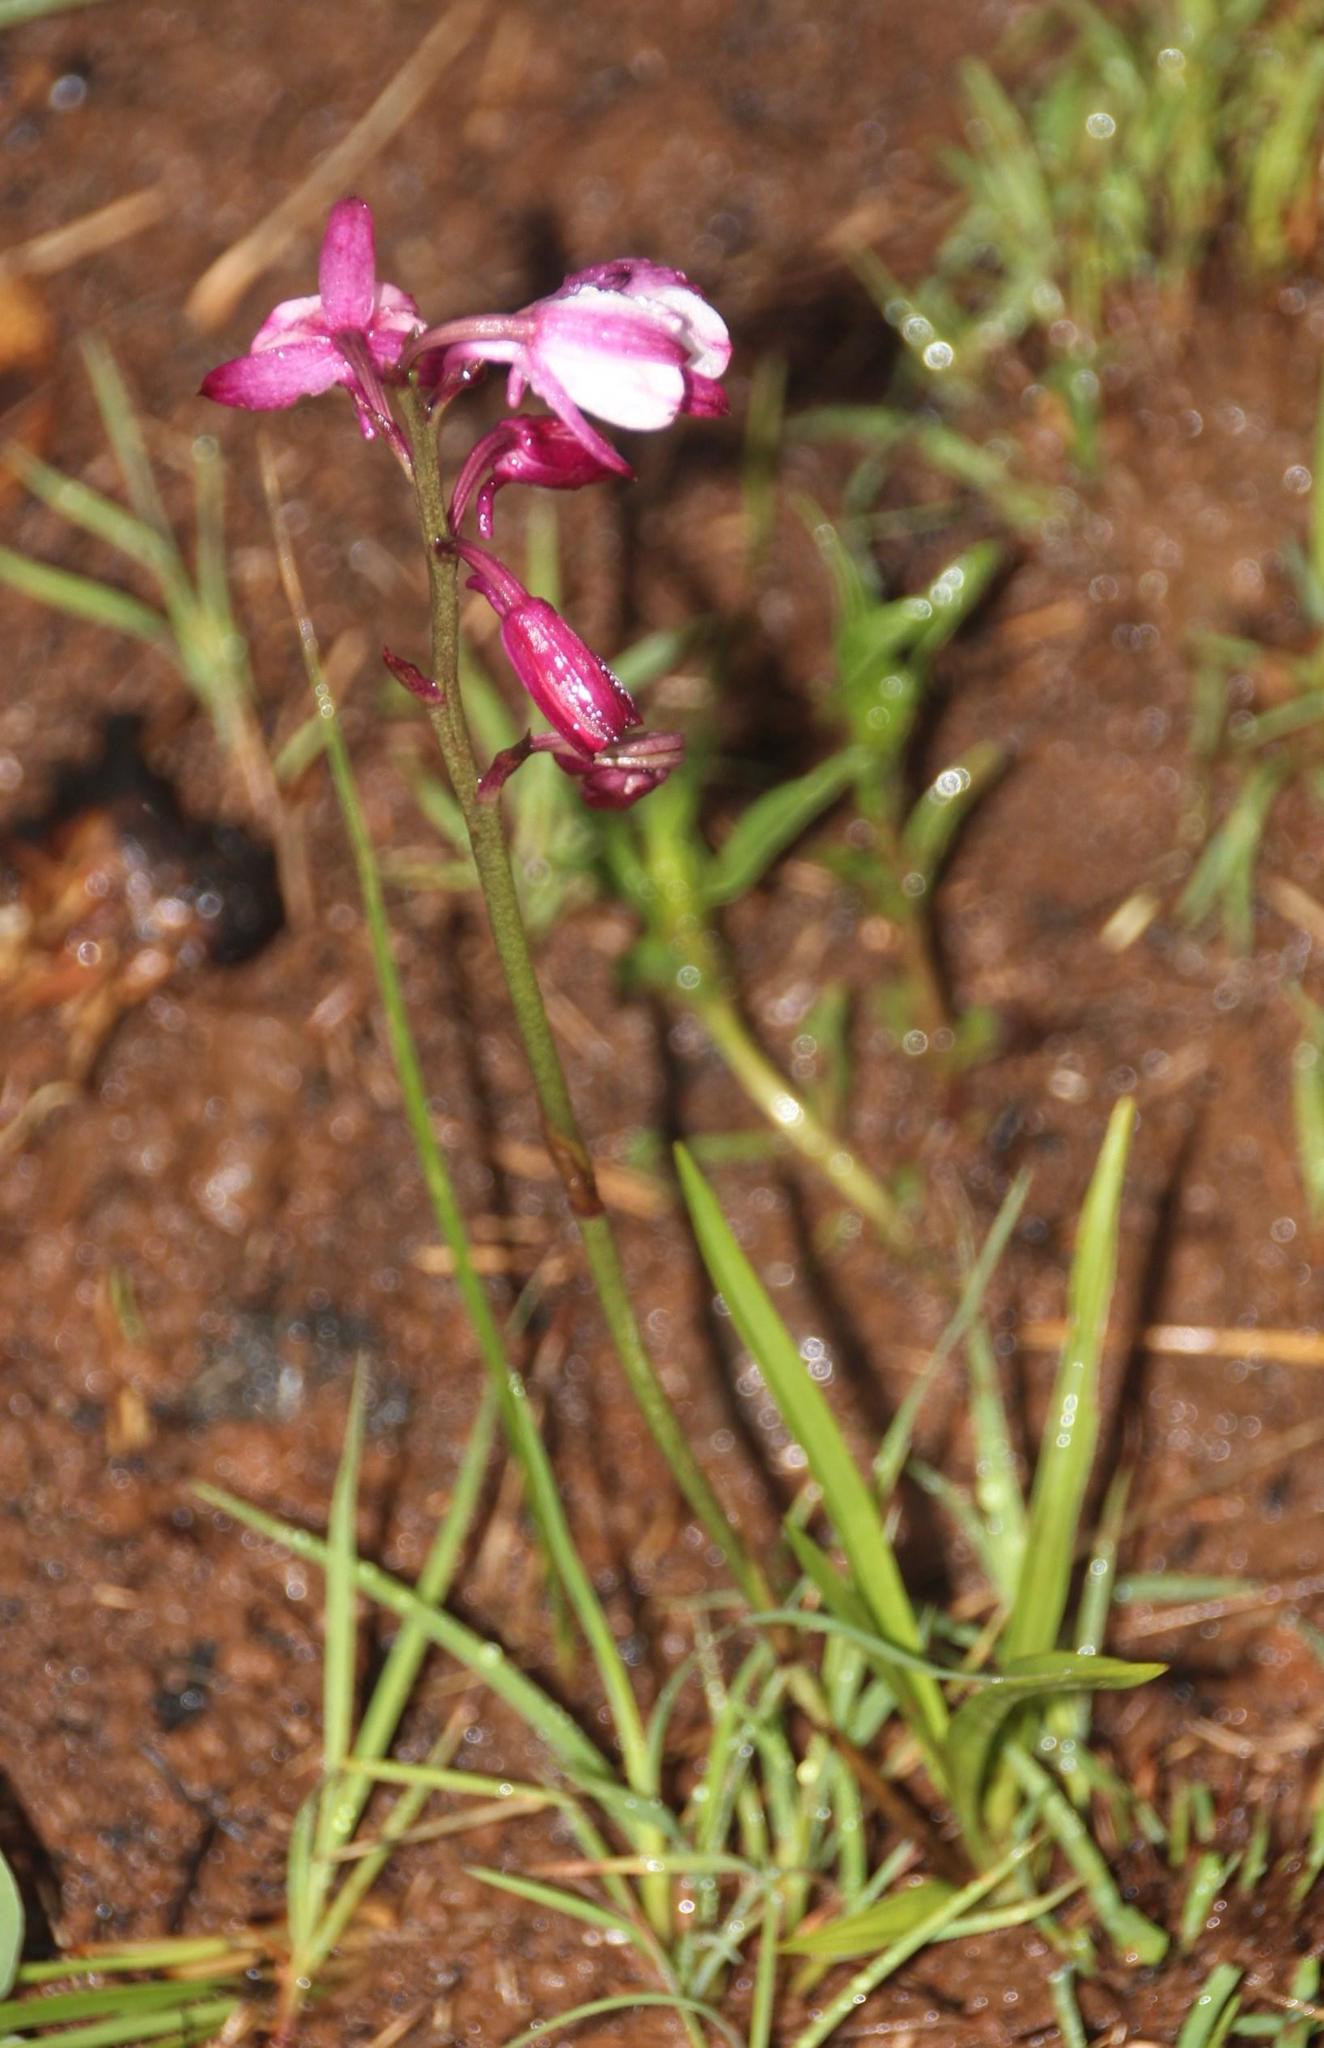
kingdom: Plantae
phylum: Tracheophyta
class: Liliopsida
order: Asparagales
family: Orchidaceae
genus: Eulophia
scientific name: Eulophia hians
